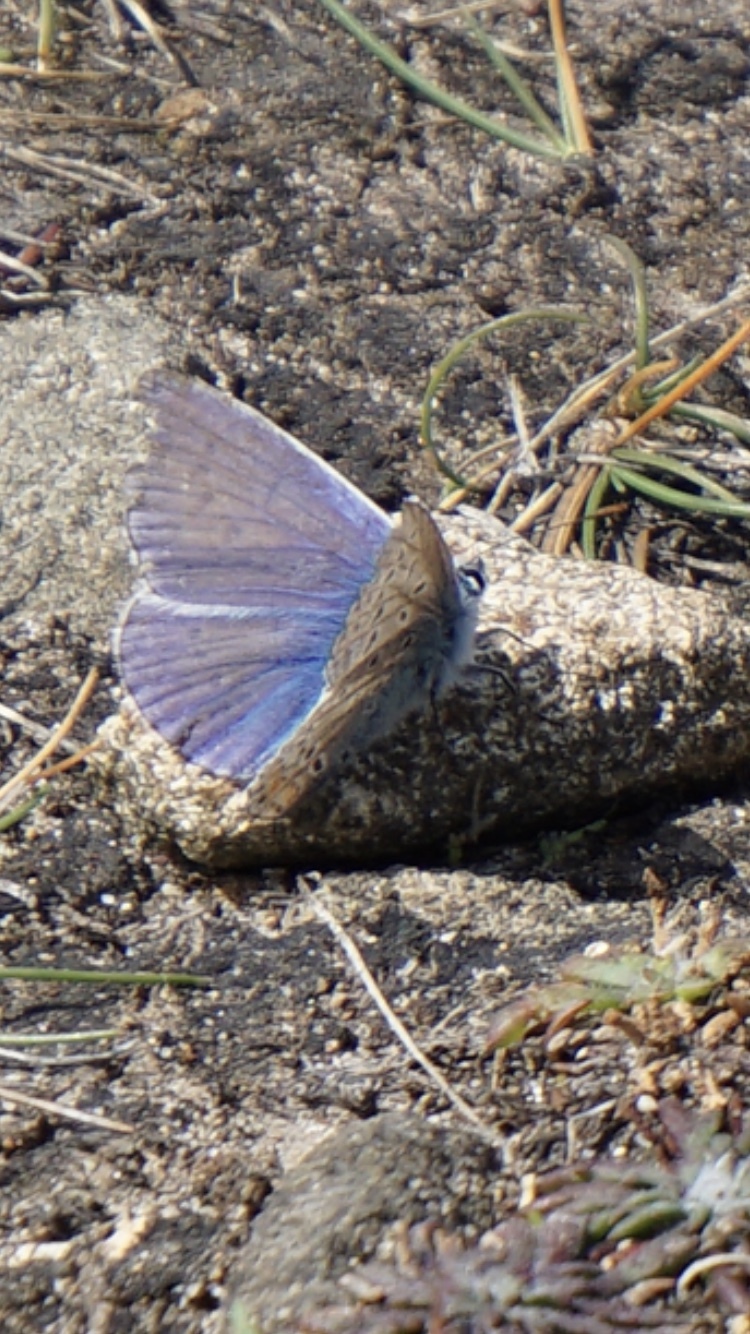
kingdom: Animalia
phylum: Arthropoda
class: Insecta
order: Lepidoptera
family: Lycaenidae
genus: Polyommatus
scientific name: Polyommatus icarus
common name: Common blue
